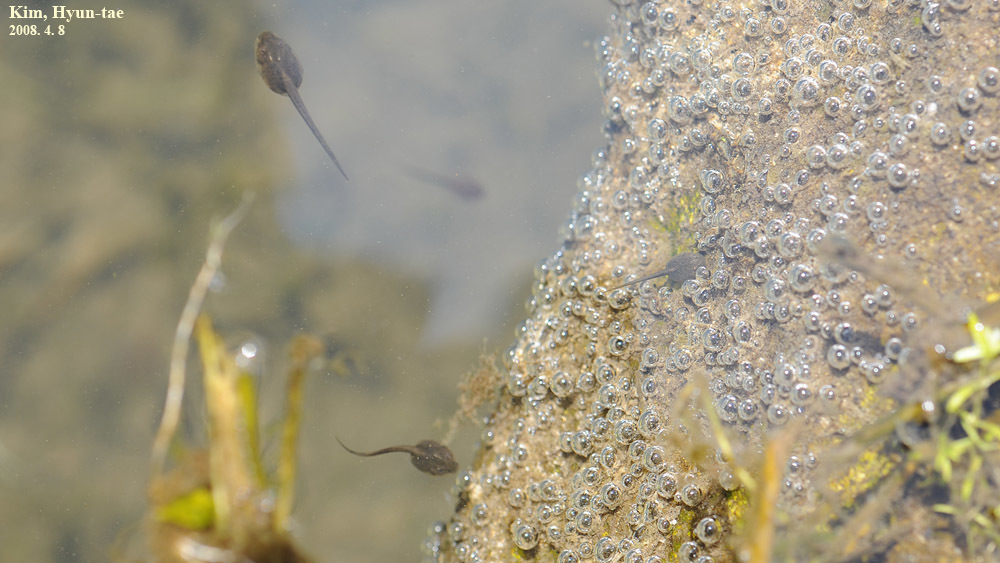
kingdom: Animalia
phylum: Chordata
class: Amphibia
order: Anura
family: Ranidae
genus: Rana
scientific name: Rana uenoi
